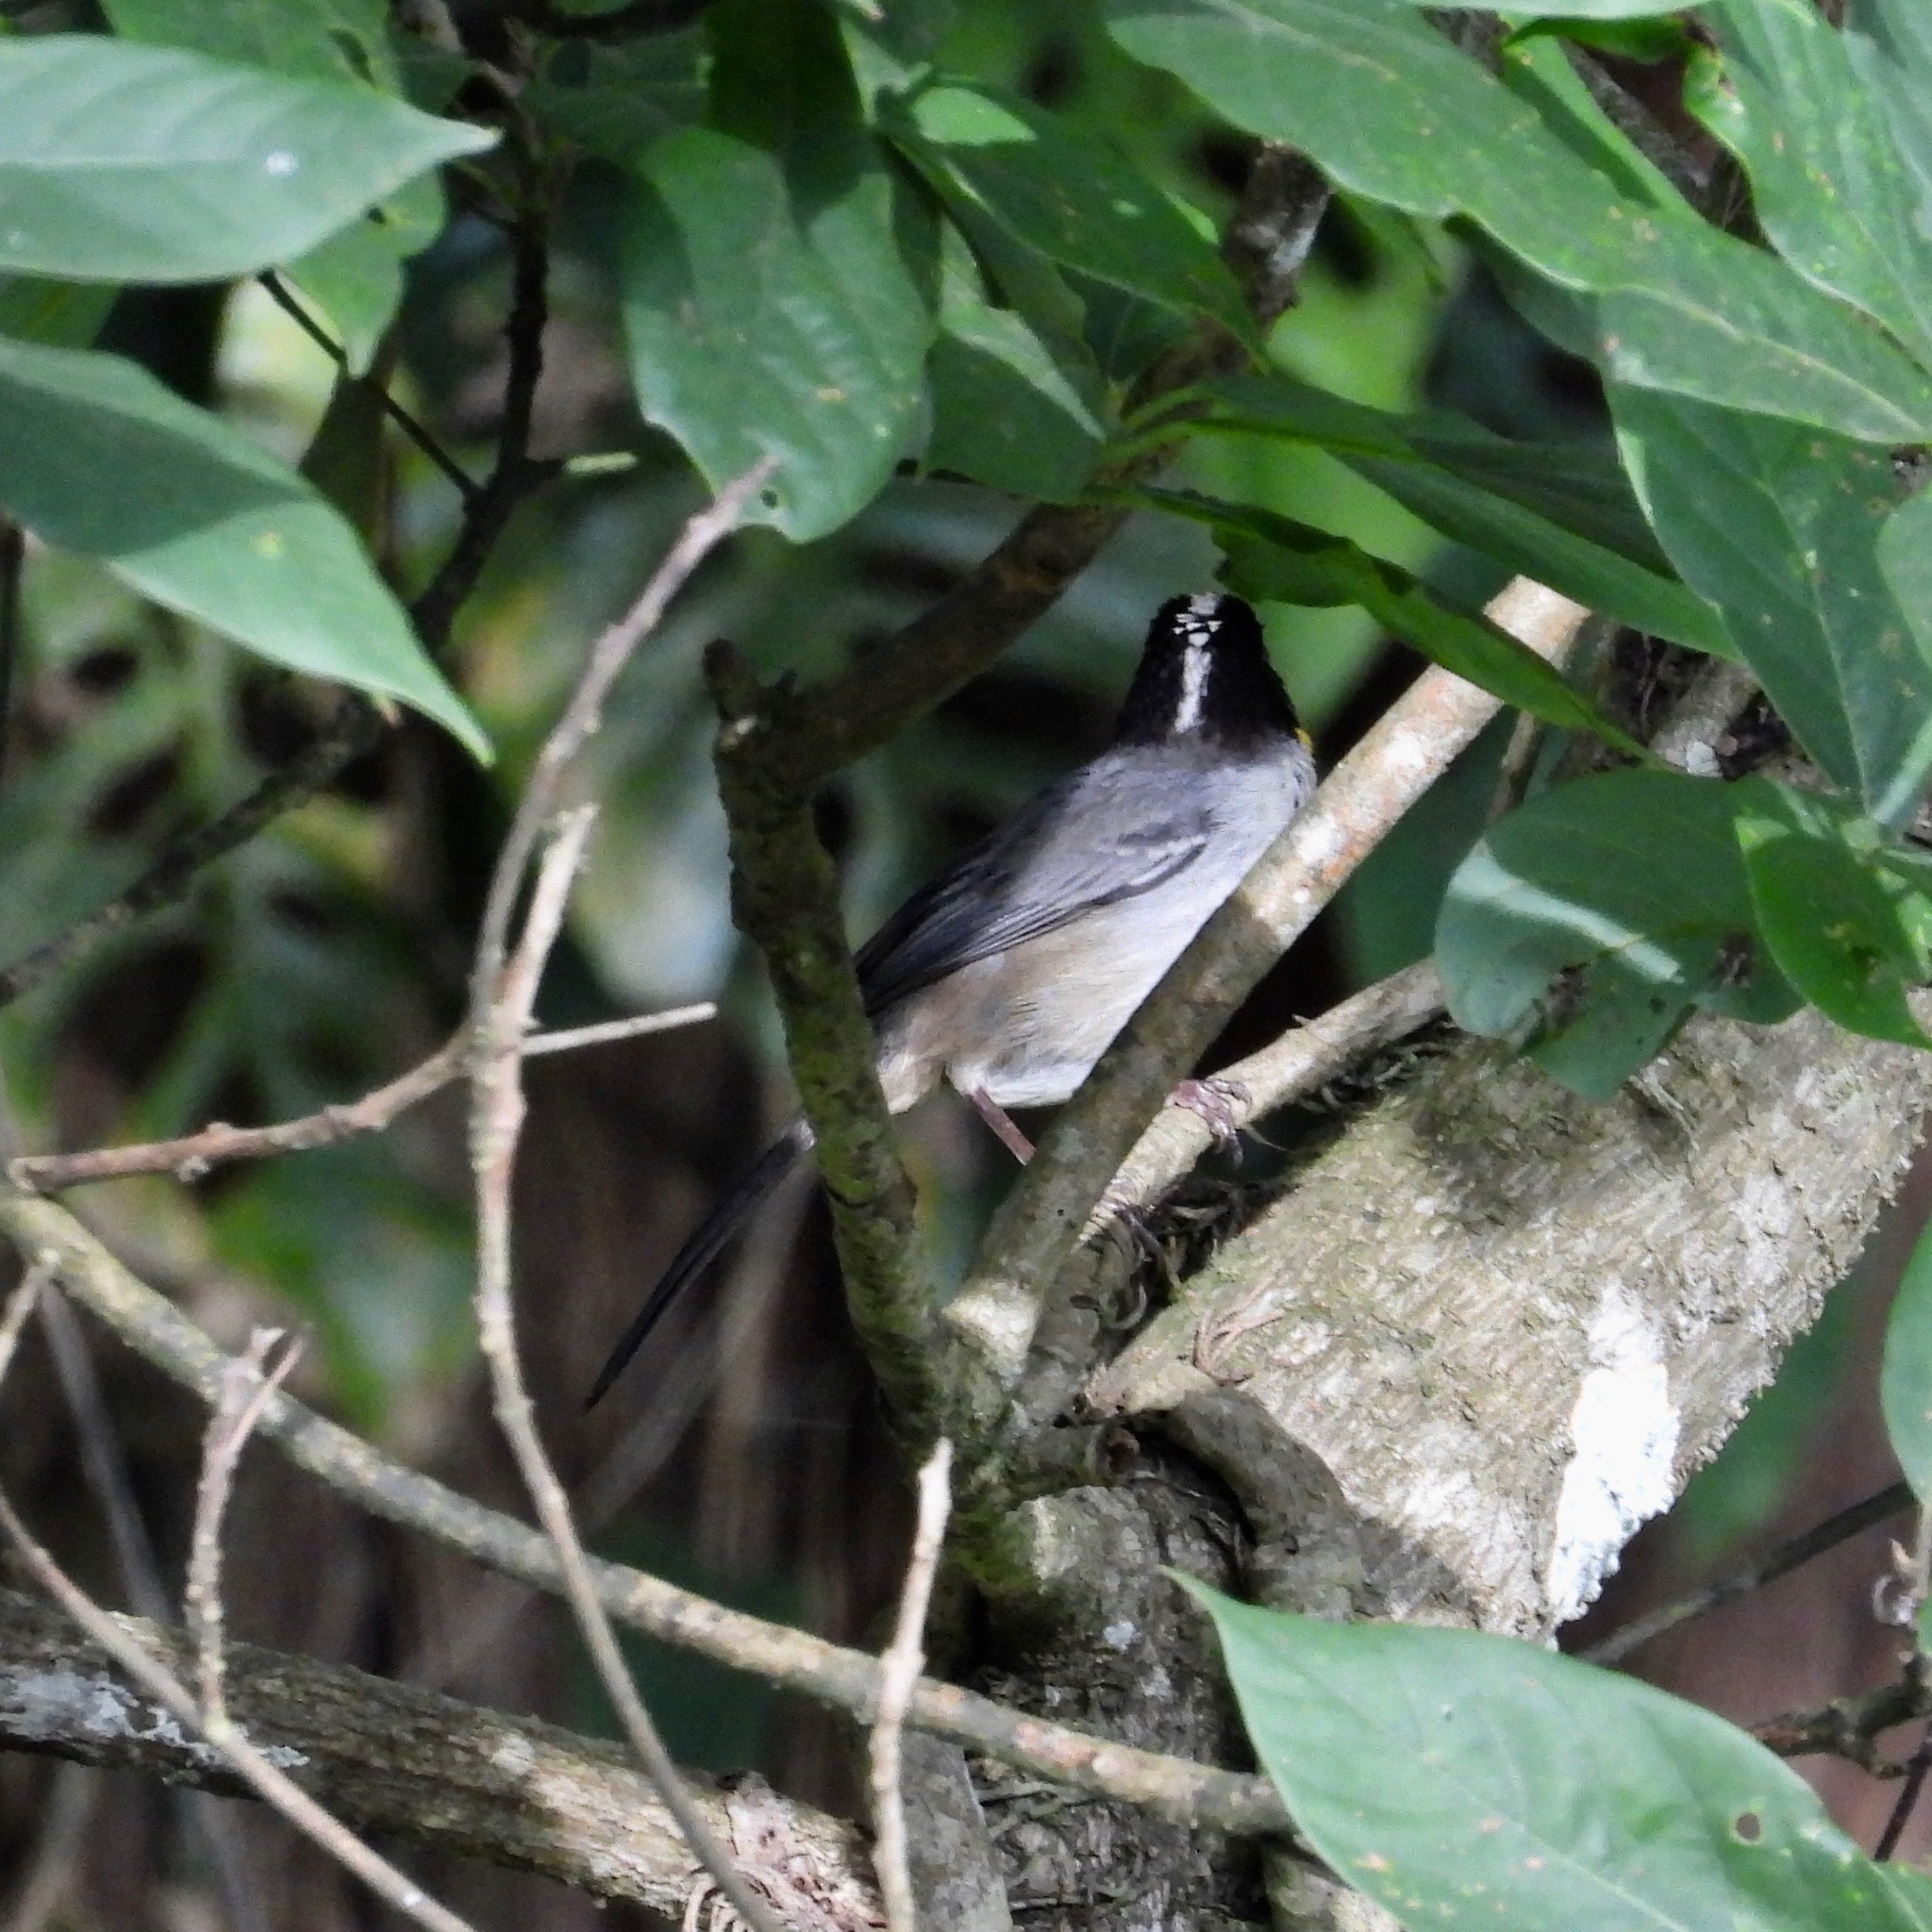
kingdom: Animalia
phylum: Chordata
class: Aves
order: Passeriformes
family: Passerellidae
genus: Atlapetes
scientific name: Atlapetes albinucha
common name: White-naped brush-finch
